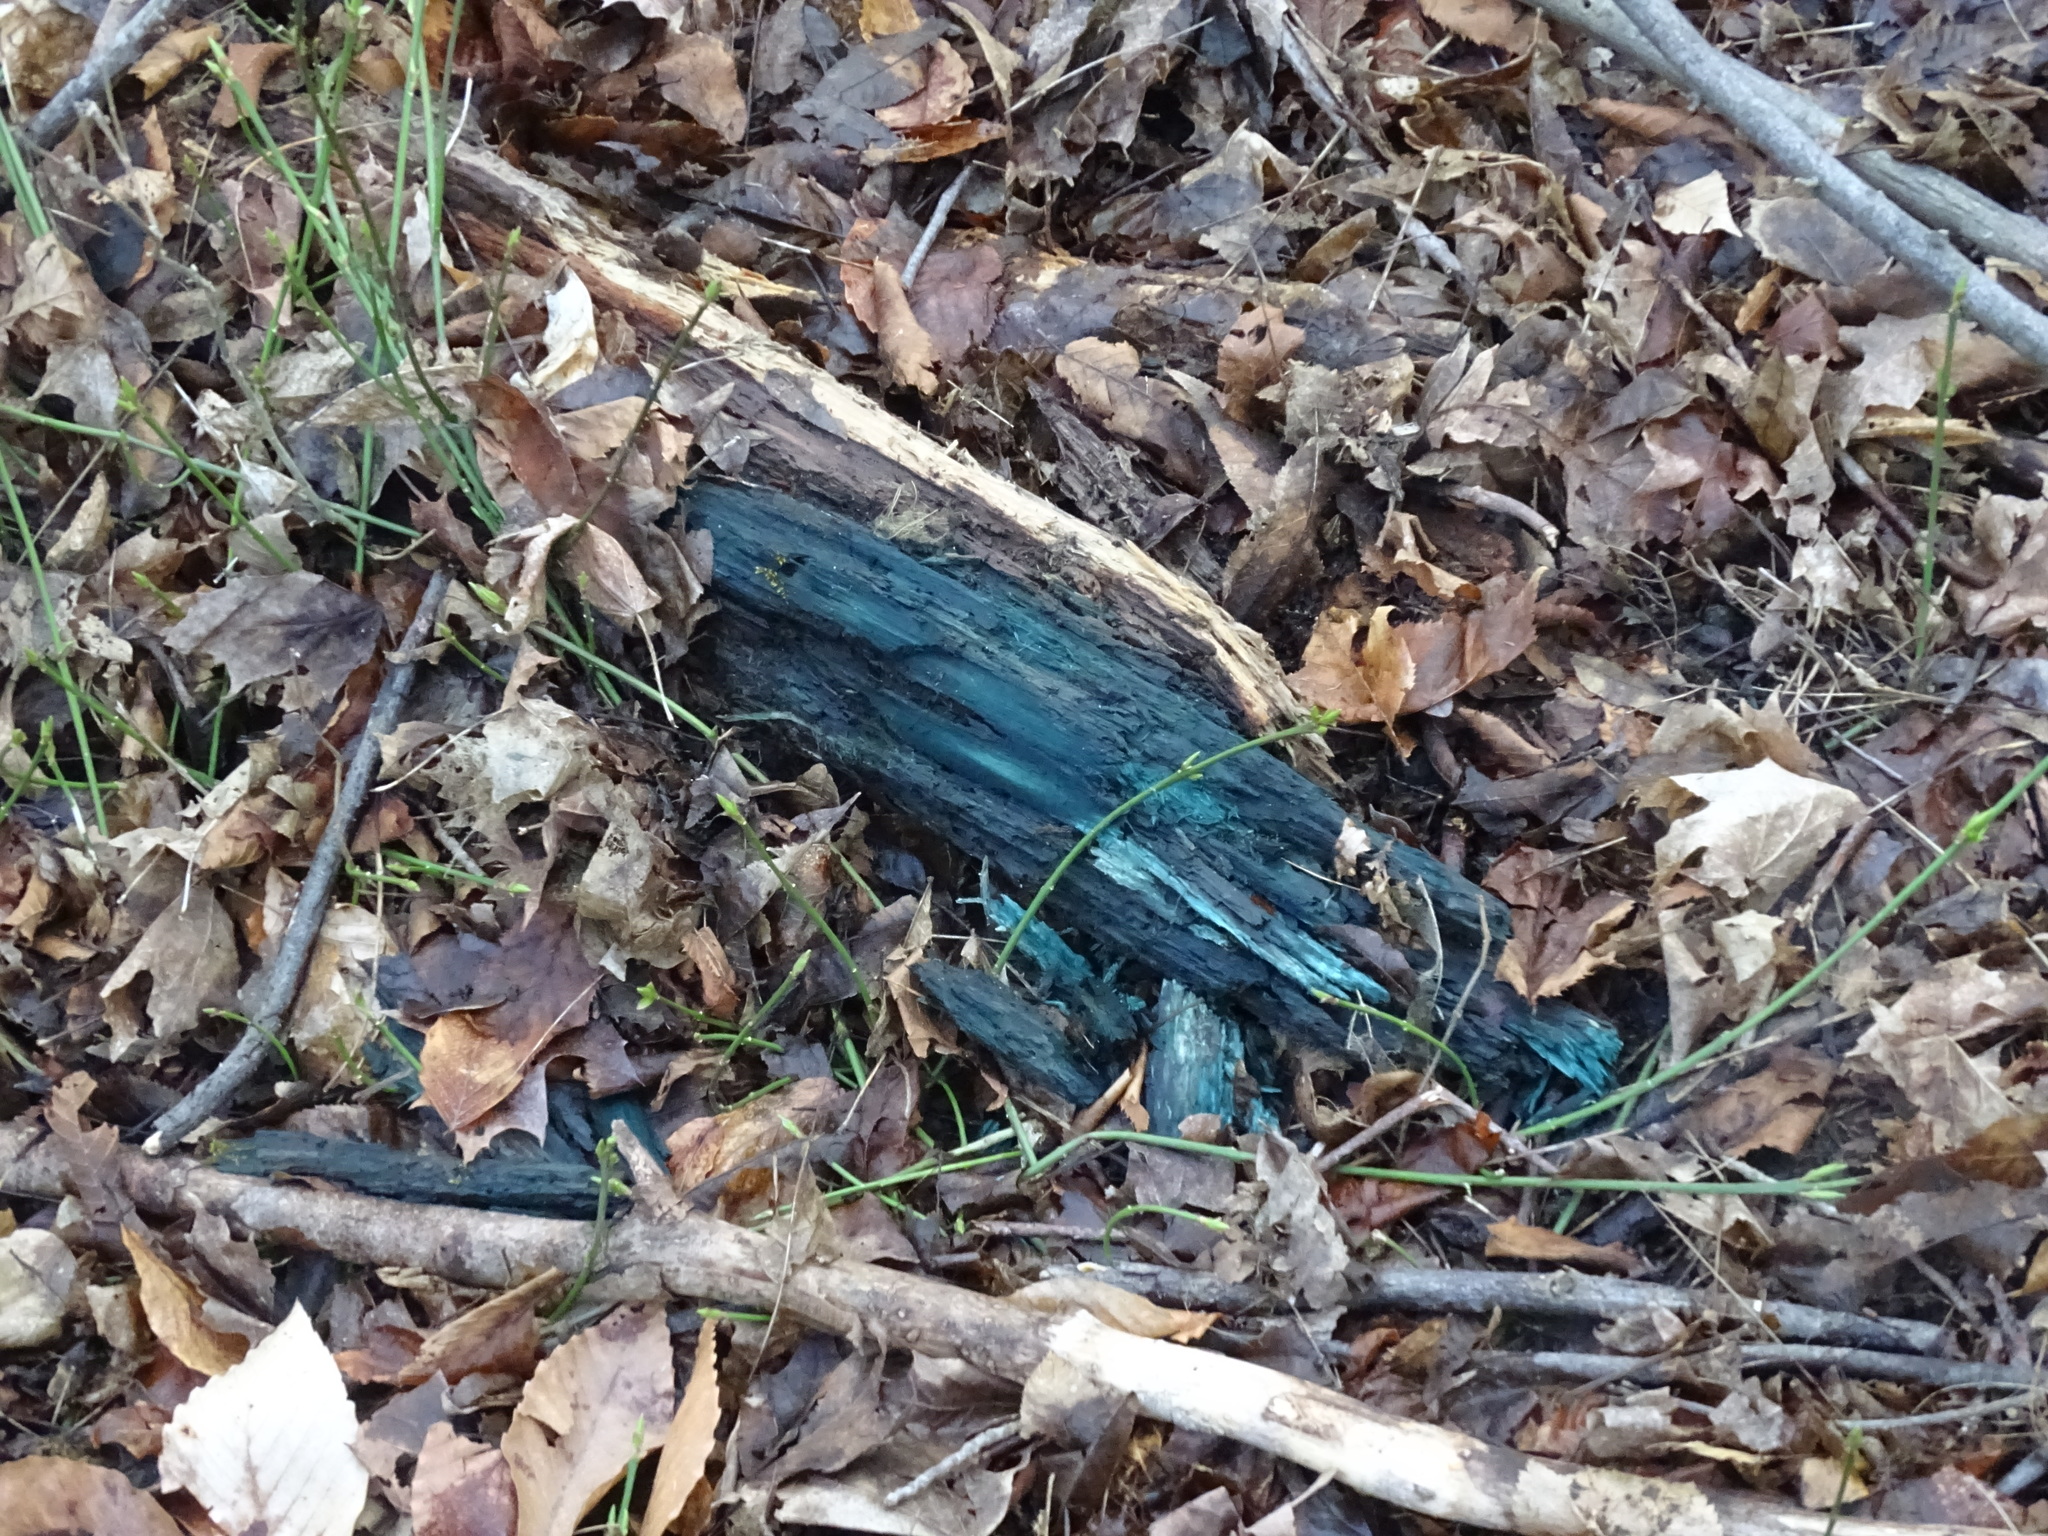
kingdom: Fungi
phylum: Ascomycota
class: Leotiomycetes
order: Helotiales
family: Chlorociboriaceae
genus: Chlorociboria
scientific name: Chlorociboria
